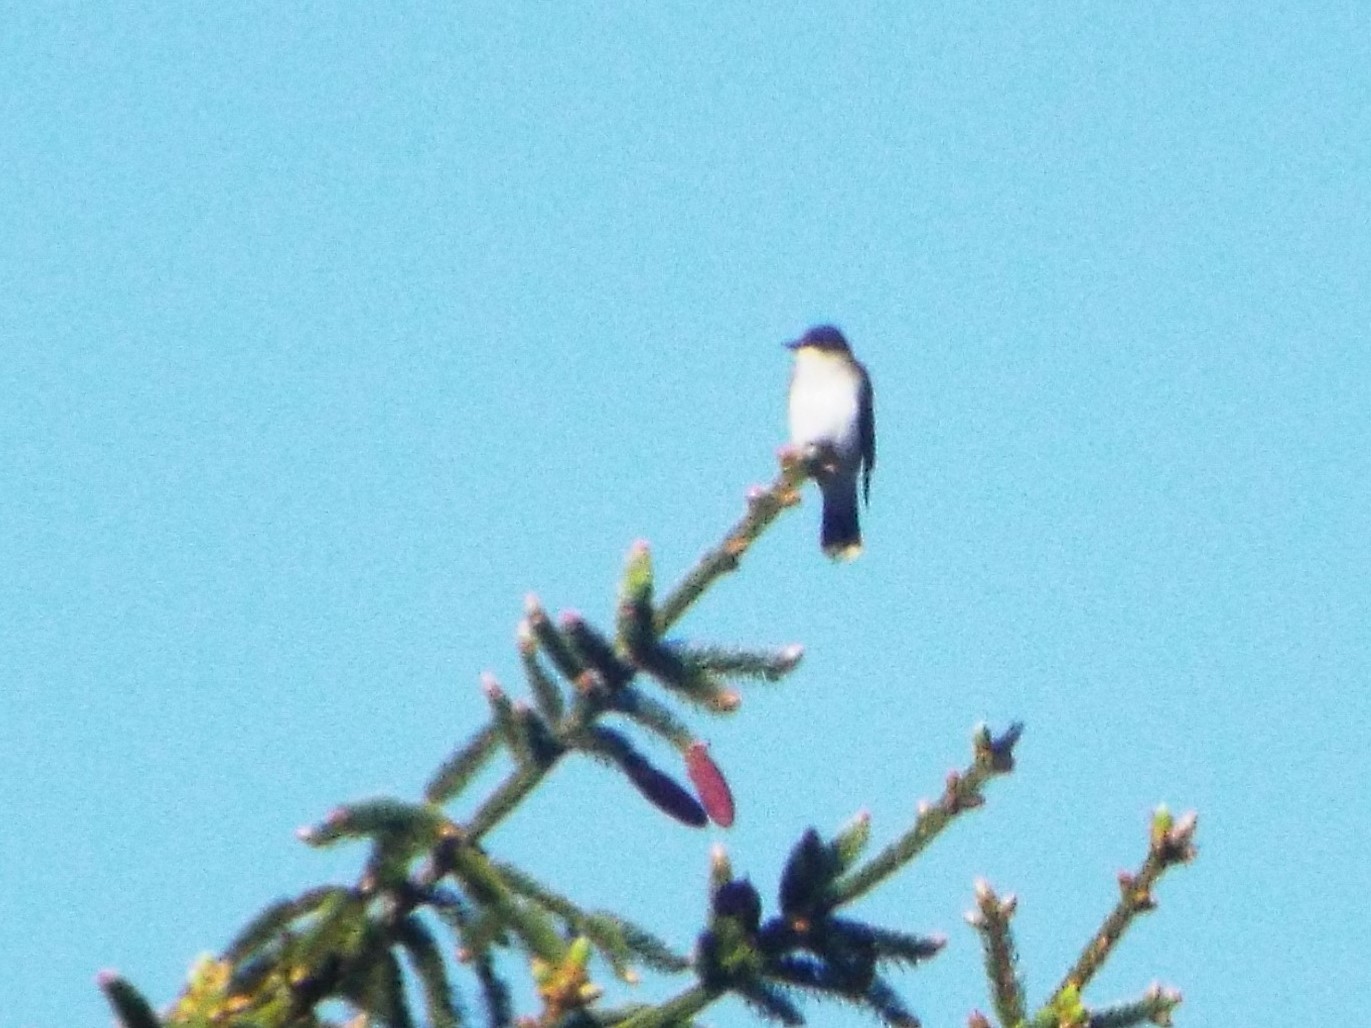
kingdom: Animalia
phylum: Chordata
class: Aves
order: Passeriformes
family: Tyrannidae
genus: Tyrannus
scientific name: Tyrannus tyrannus
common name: Eastern kingbird
